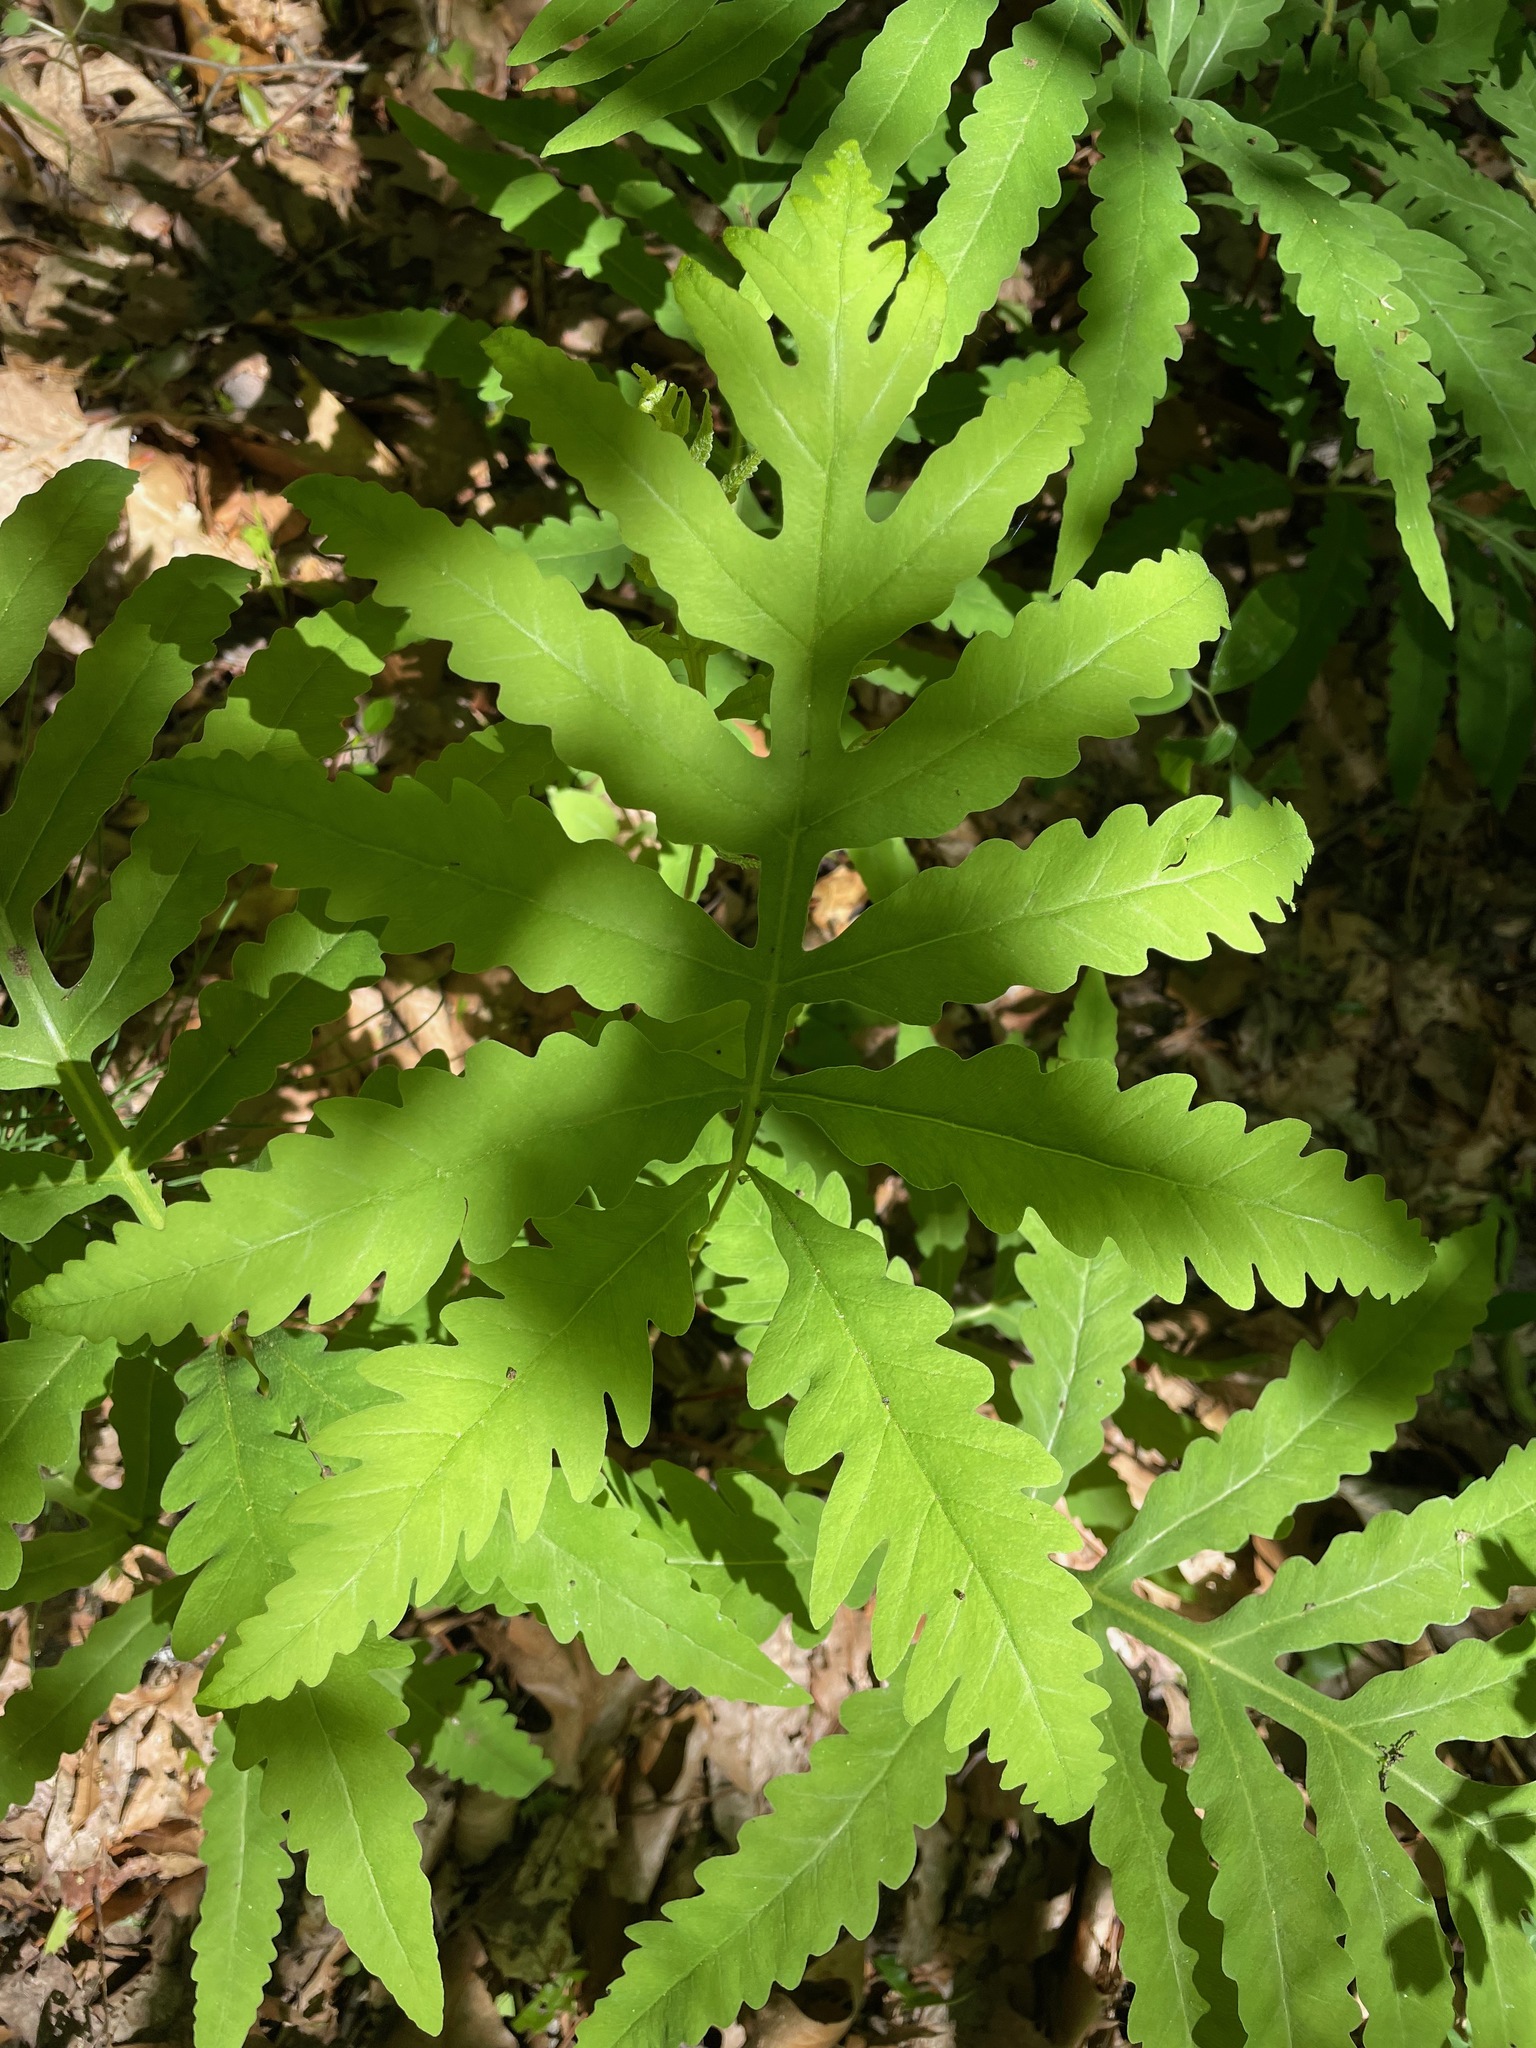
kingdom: Plantae
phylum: Tracheophyta
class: Polypodiopsida
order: Polypodiales
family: Onocleaceae
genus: Onoclea
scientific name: Onoclea sensibilis
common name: Sensitive fern
